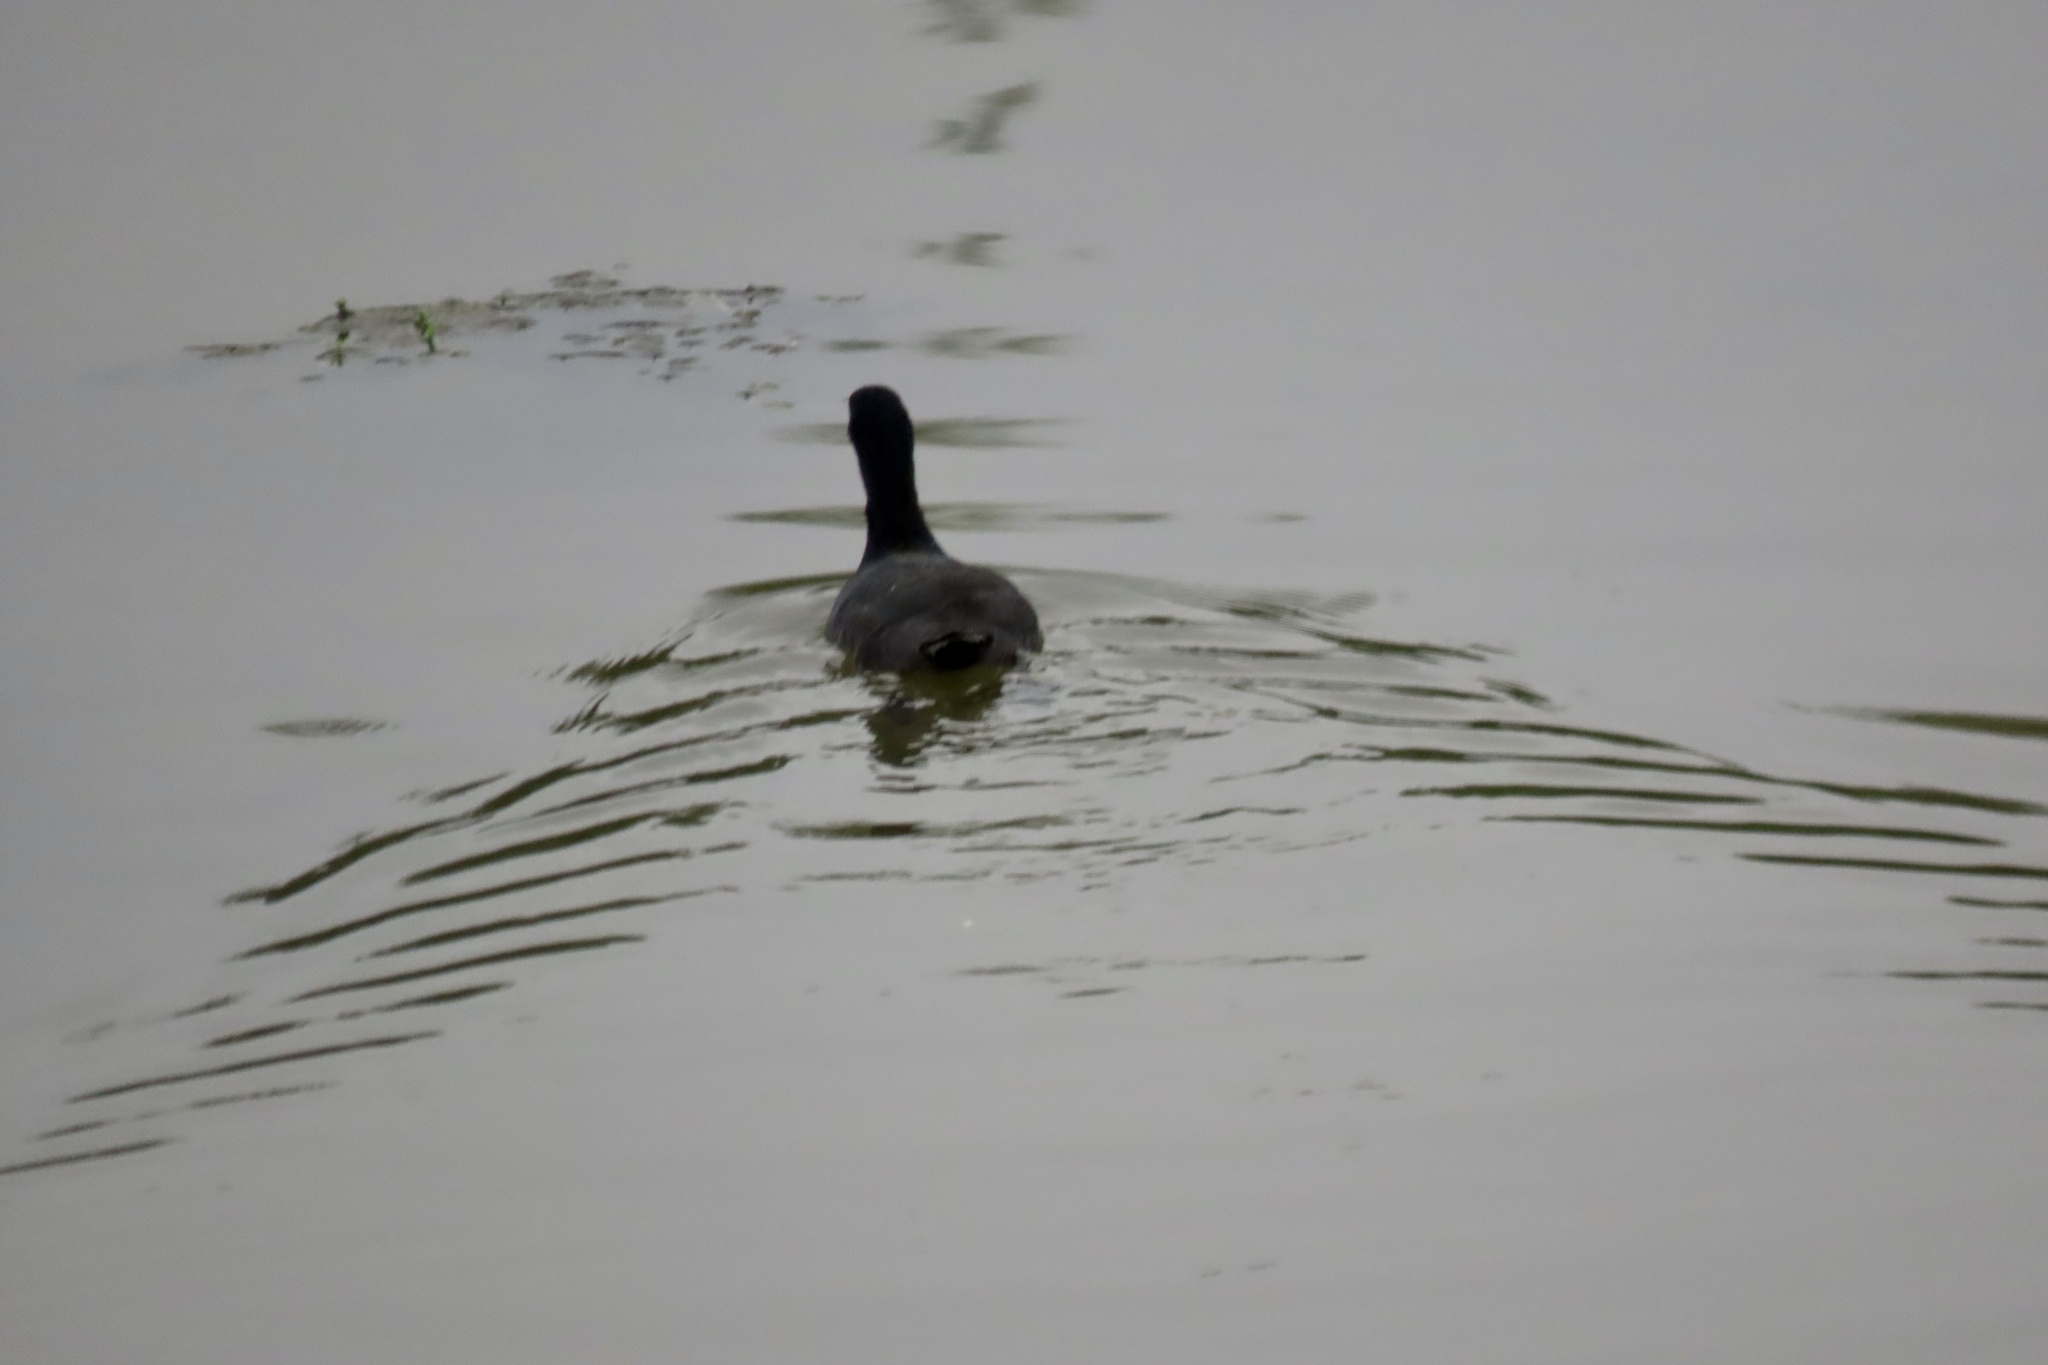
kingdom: Animalia
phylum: Chordata
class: Aves
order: Gruiformes
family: Rallidae
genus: Fulica
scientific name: Fulica americana
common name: American coot
